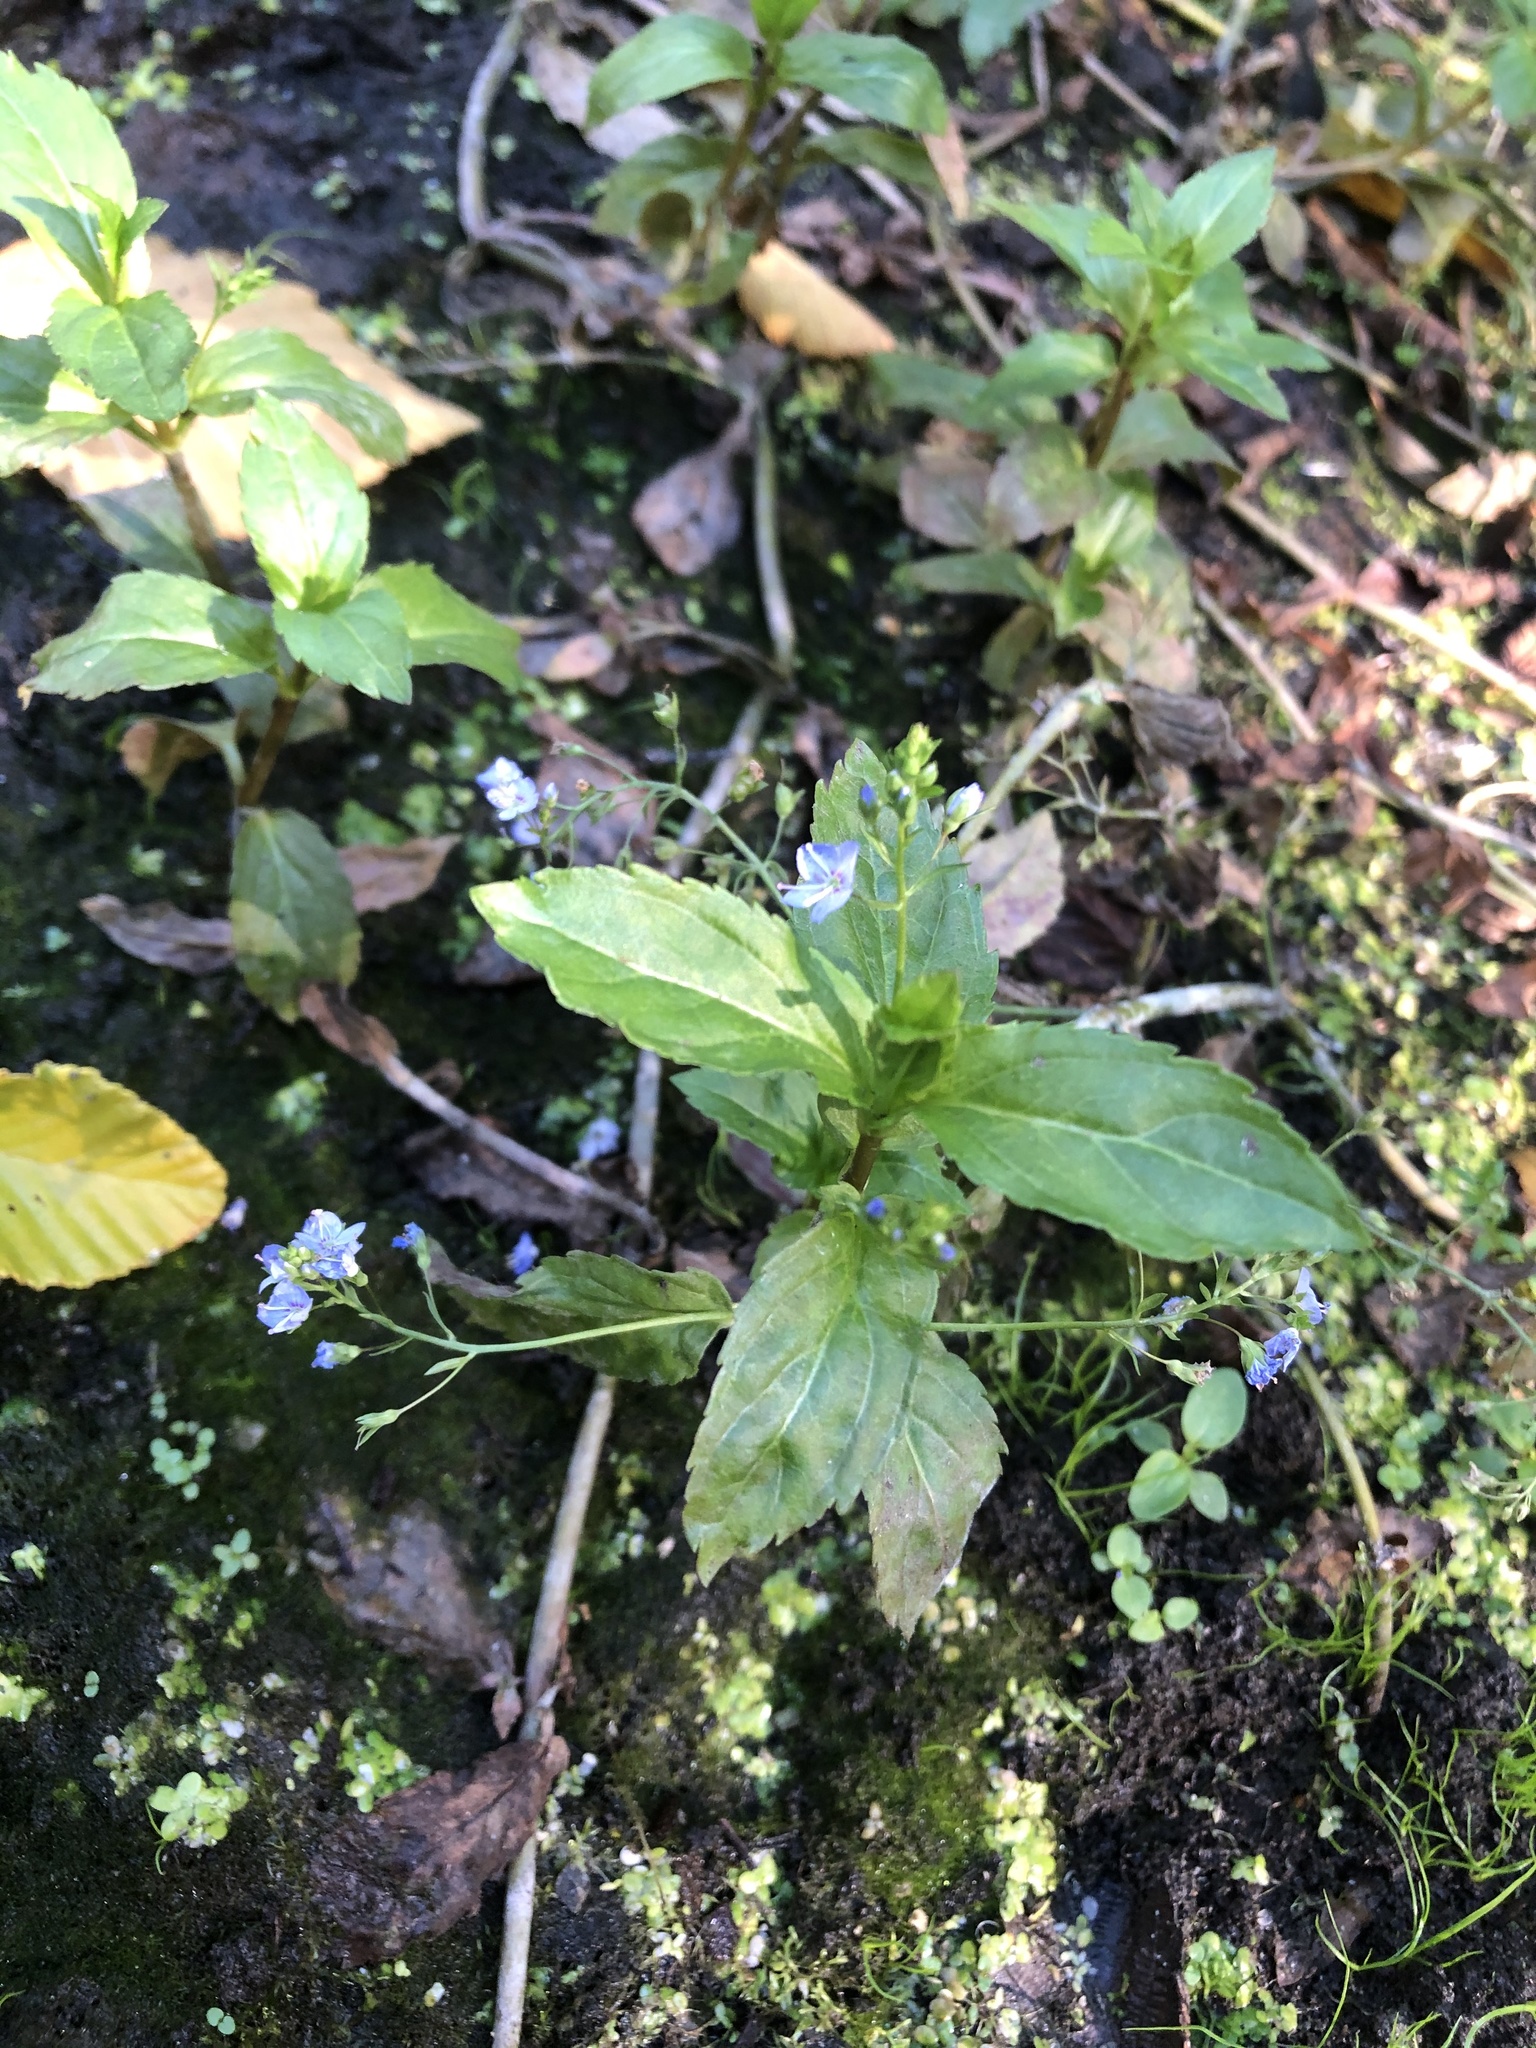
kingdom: Plantae
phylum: Tracheophyta
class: Magnoliopsida
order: Lamiales
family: Plantaginaceae
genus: Veronica
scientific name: Veronica americana
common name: American brooklime
